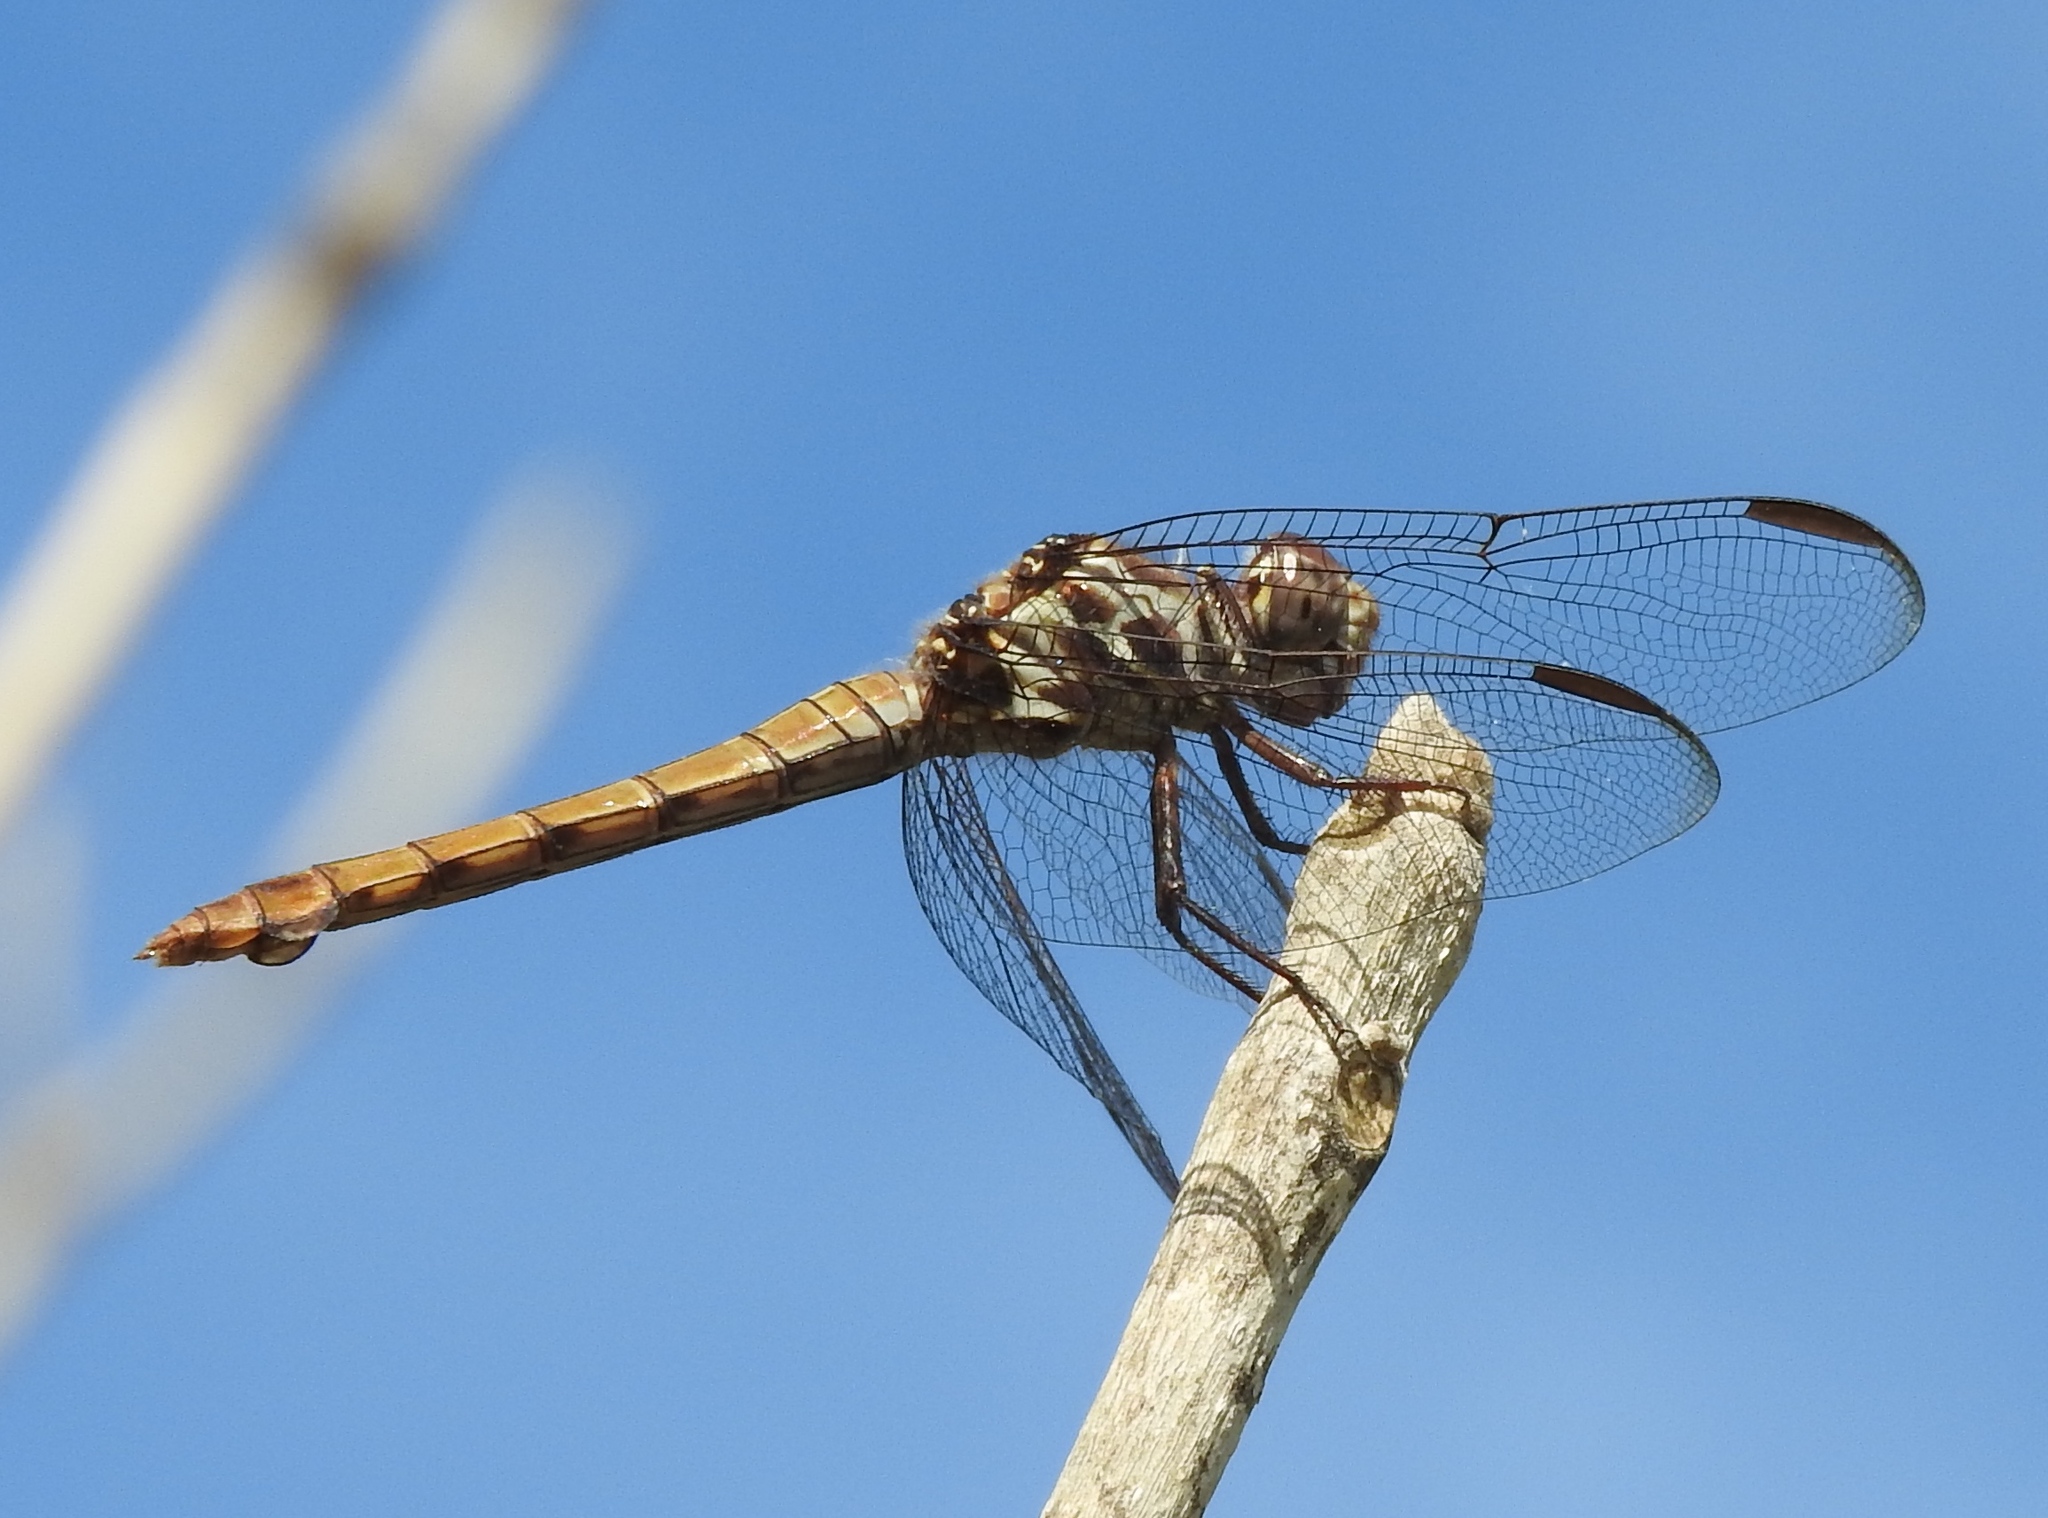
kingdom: Animalia
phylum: Arthropoda
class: Insecta
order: Odonata
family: Libellulidae
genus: Orthemis
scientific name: Orthemis ferruginea
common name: Roseate skimmer
